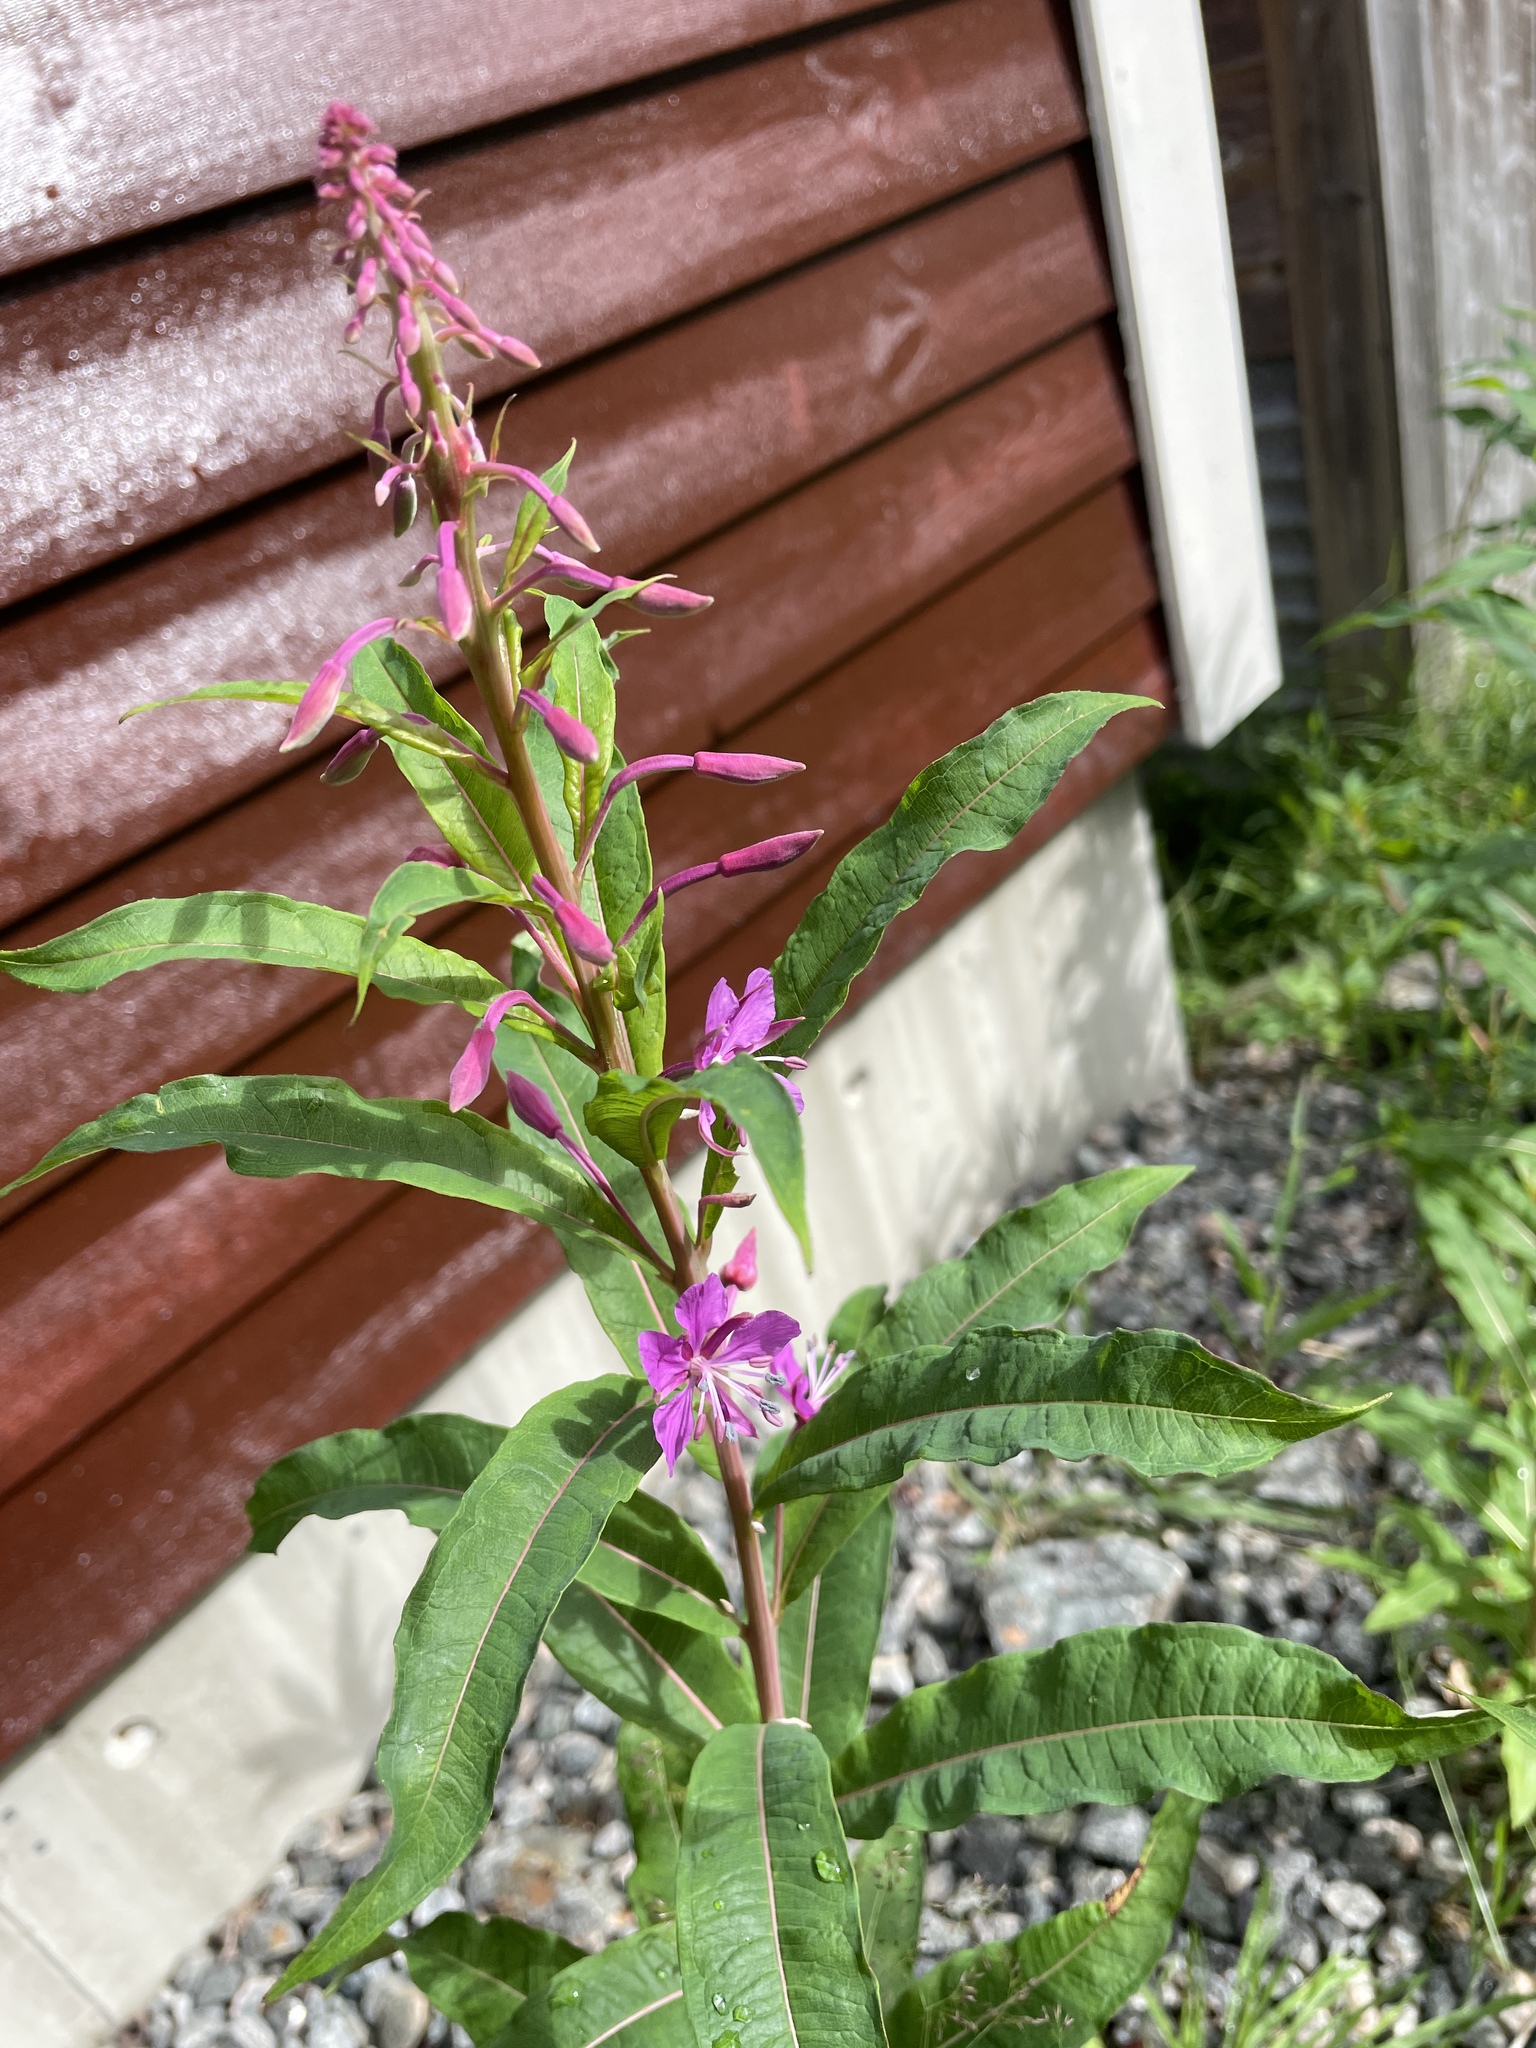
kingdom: Plantae
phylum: Tracheophyta
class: Magnoliopsida
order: Myrtales
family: Onagraceae
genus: Chamaenerion
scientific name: Chamaenerion angustifolium
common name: Fireweed
